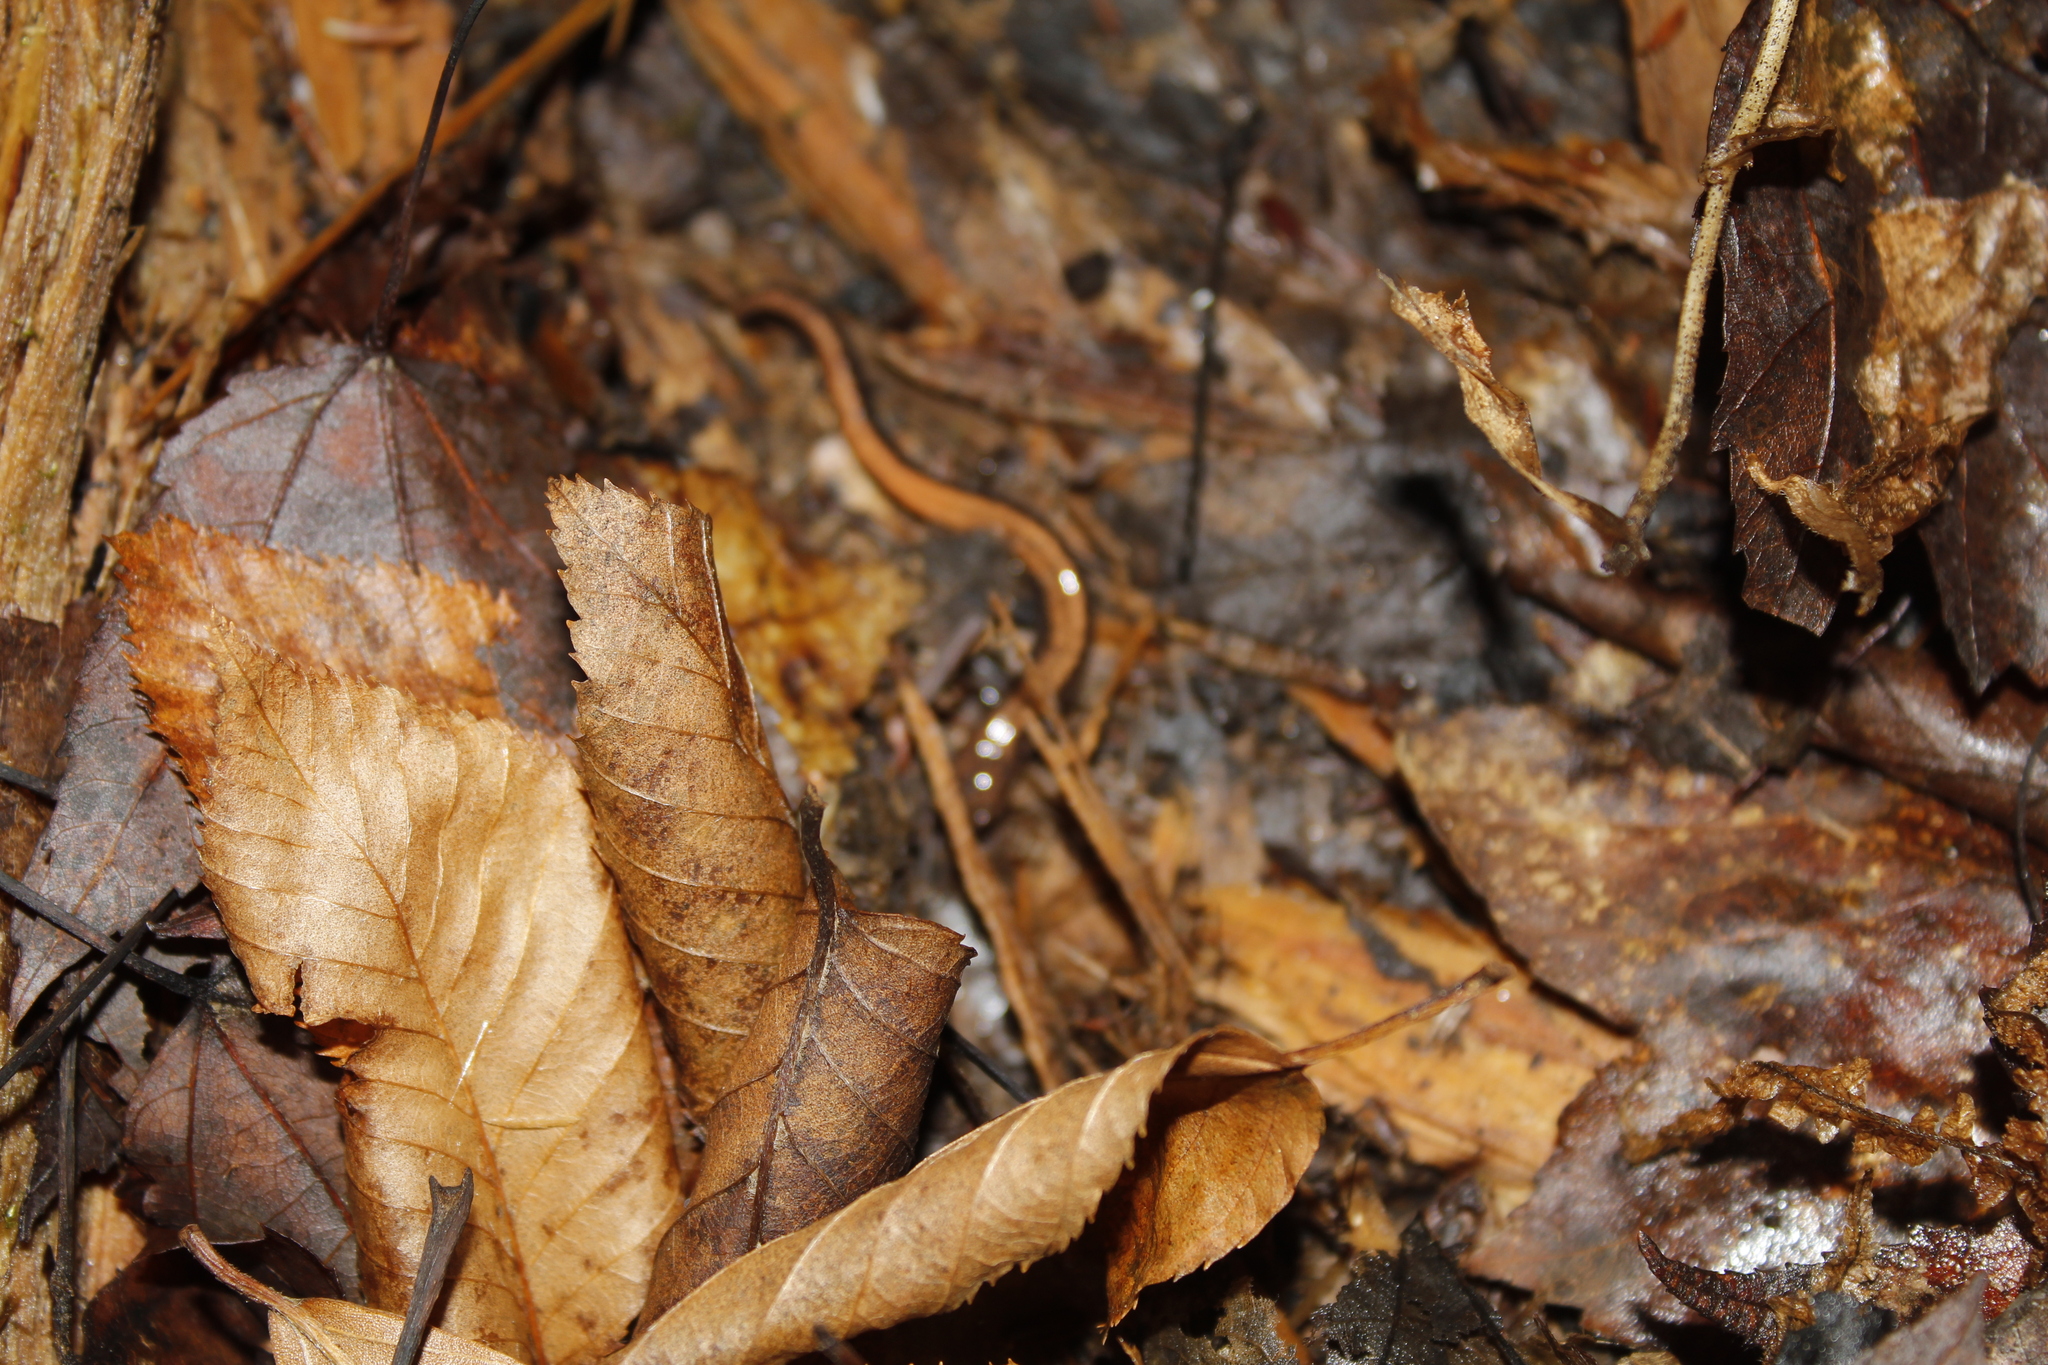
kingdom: Animalia
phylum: Chordata
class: Amphibia
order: Caudata
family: Plethodontidae
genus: Plethodon
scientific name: Plethodon cinereus
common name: Redback salamander
